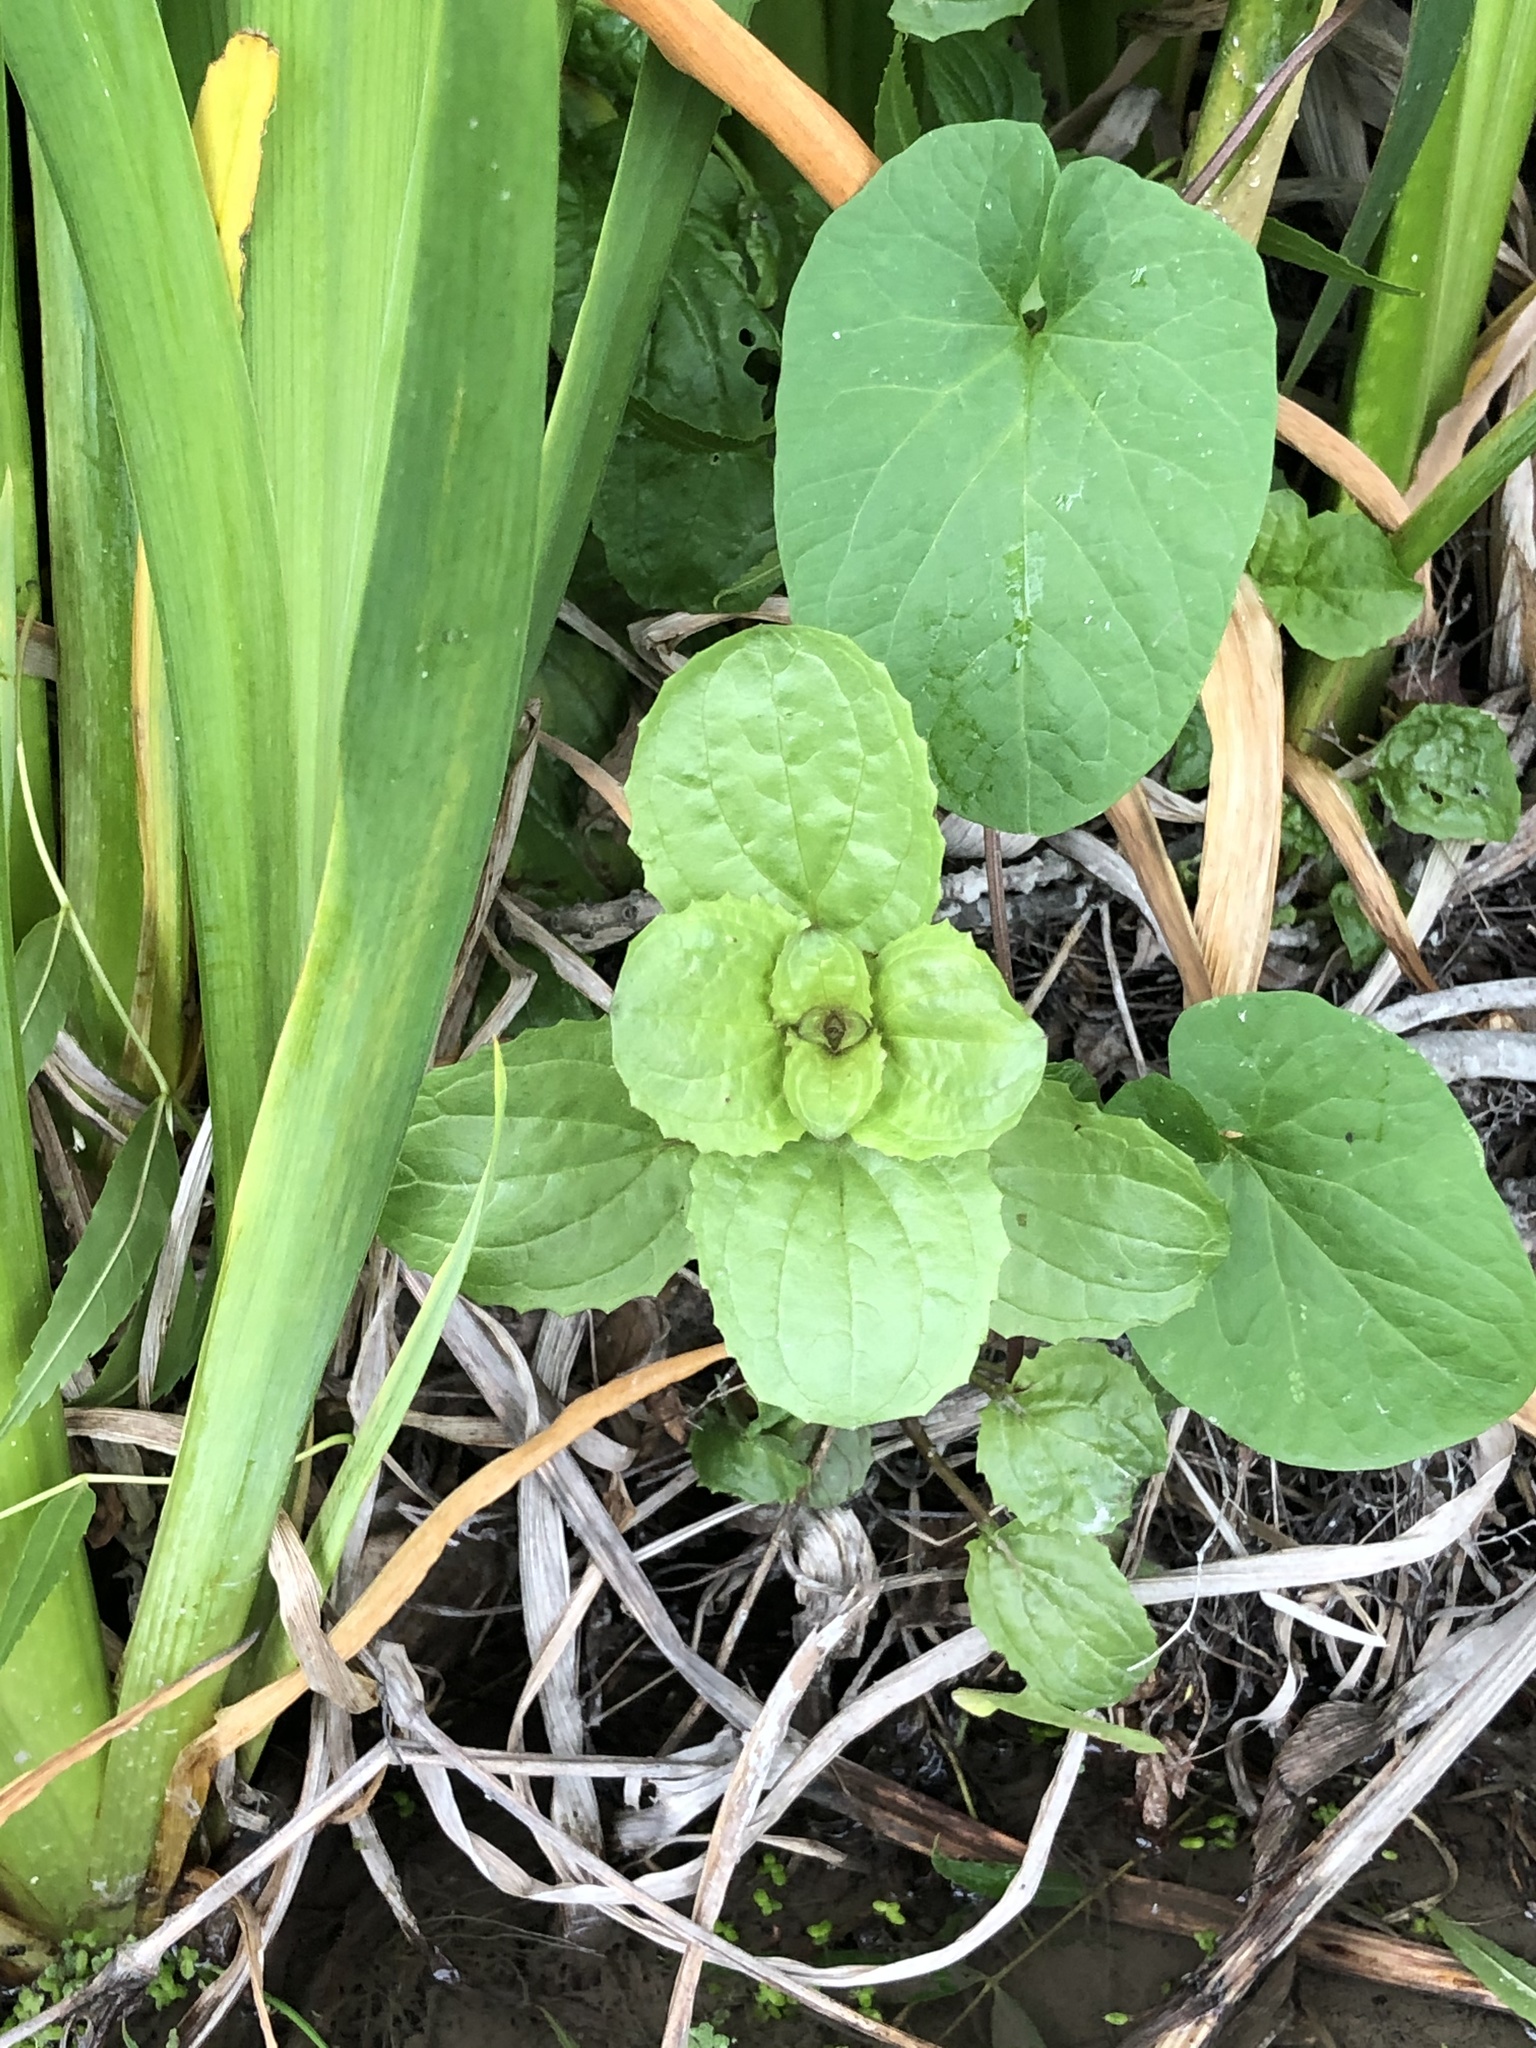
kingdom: Plantae
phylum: Tracheophyta
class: Magnoliopsida
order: Lamiales
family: Phrymaceae
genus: Erythranthe
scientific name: Erythranthe guttata
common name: Monkeyflower
